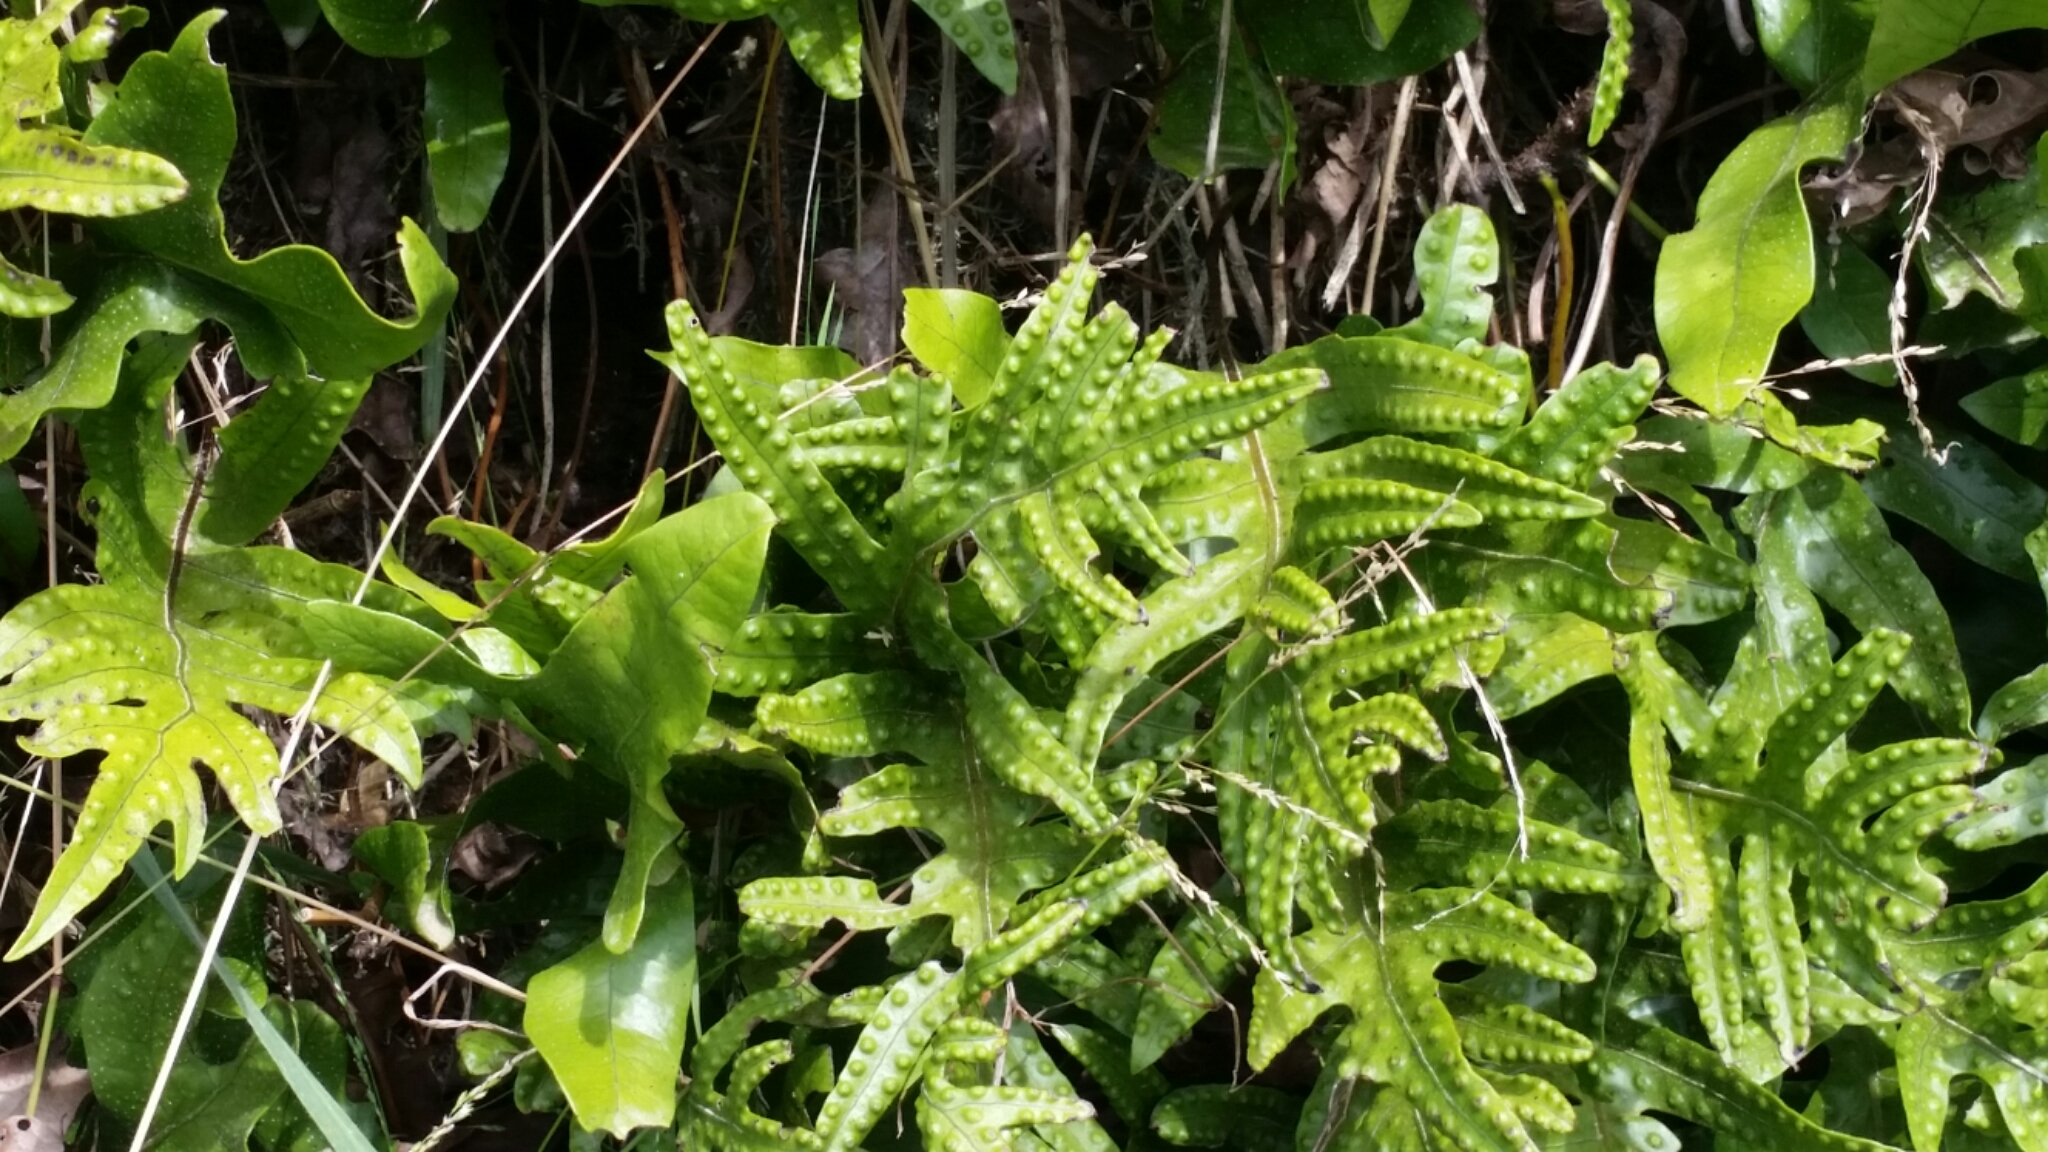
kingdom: Plantae
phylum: Tracheophyta
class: Polypodiopsida
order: Polypodiales
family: Polypodiaceae
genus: Lecanopteris
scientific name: Lecanopteris pustulata
